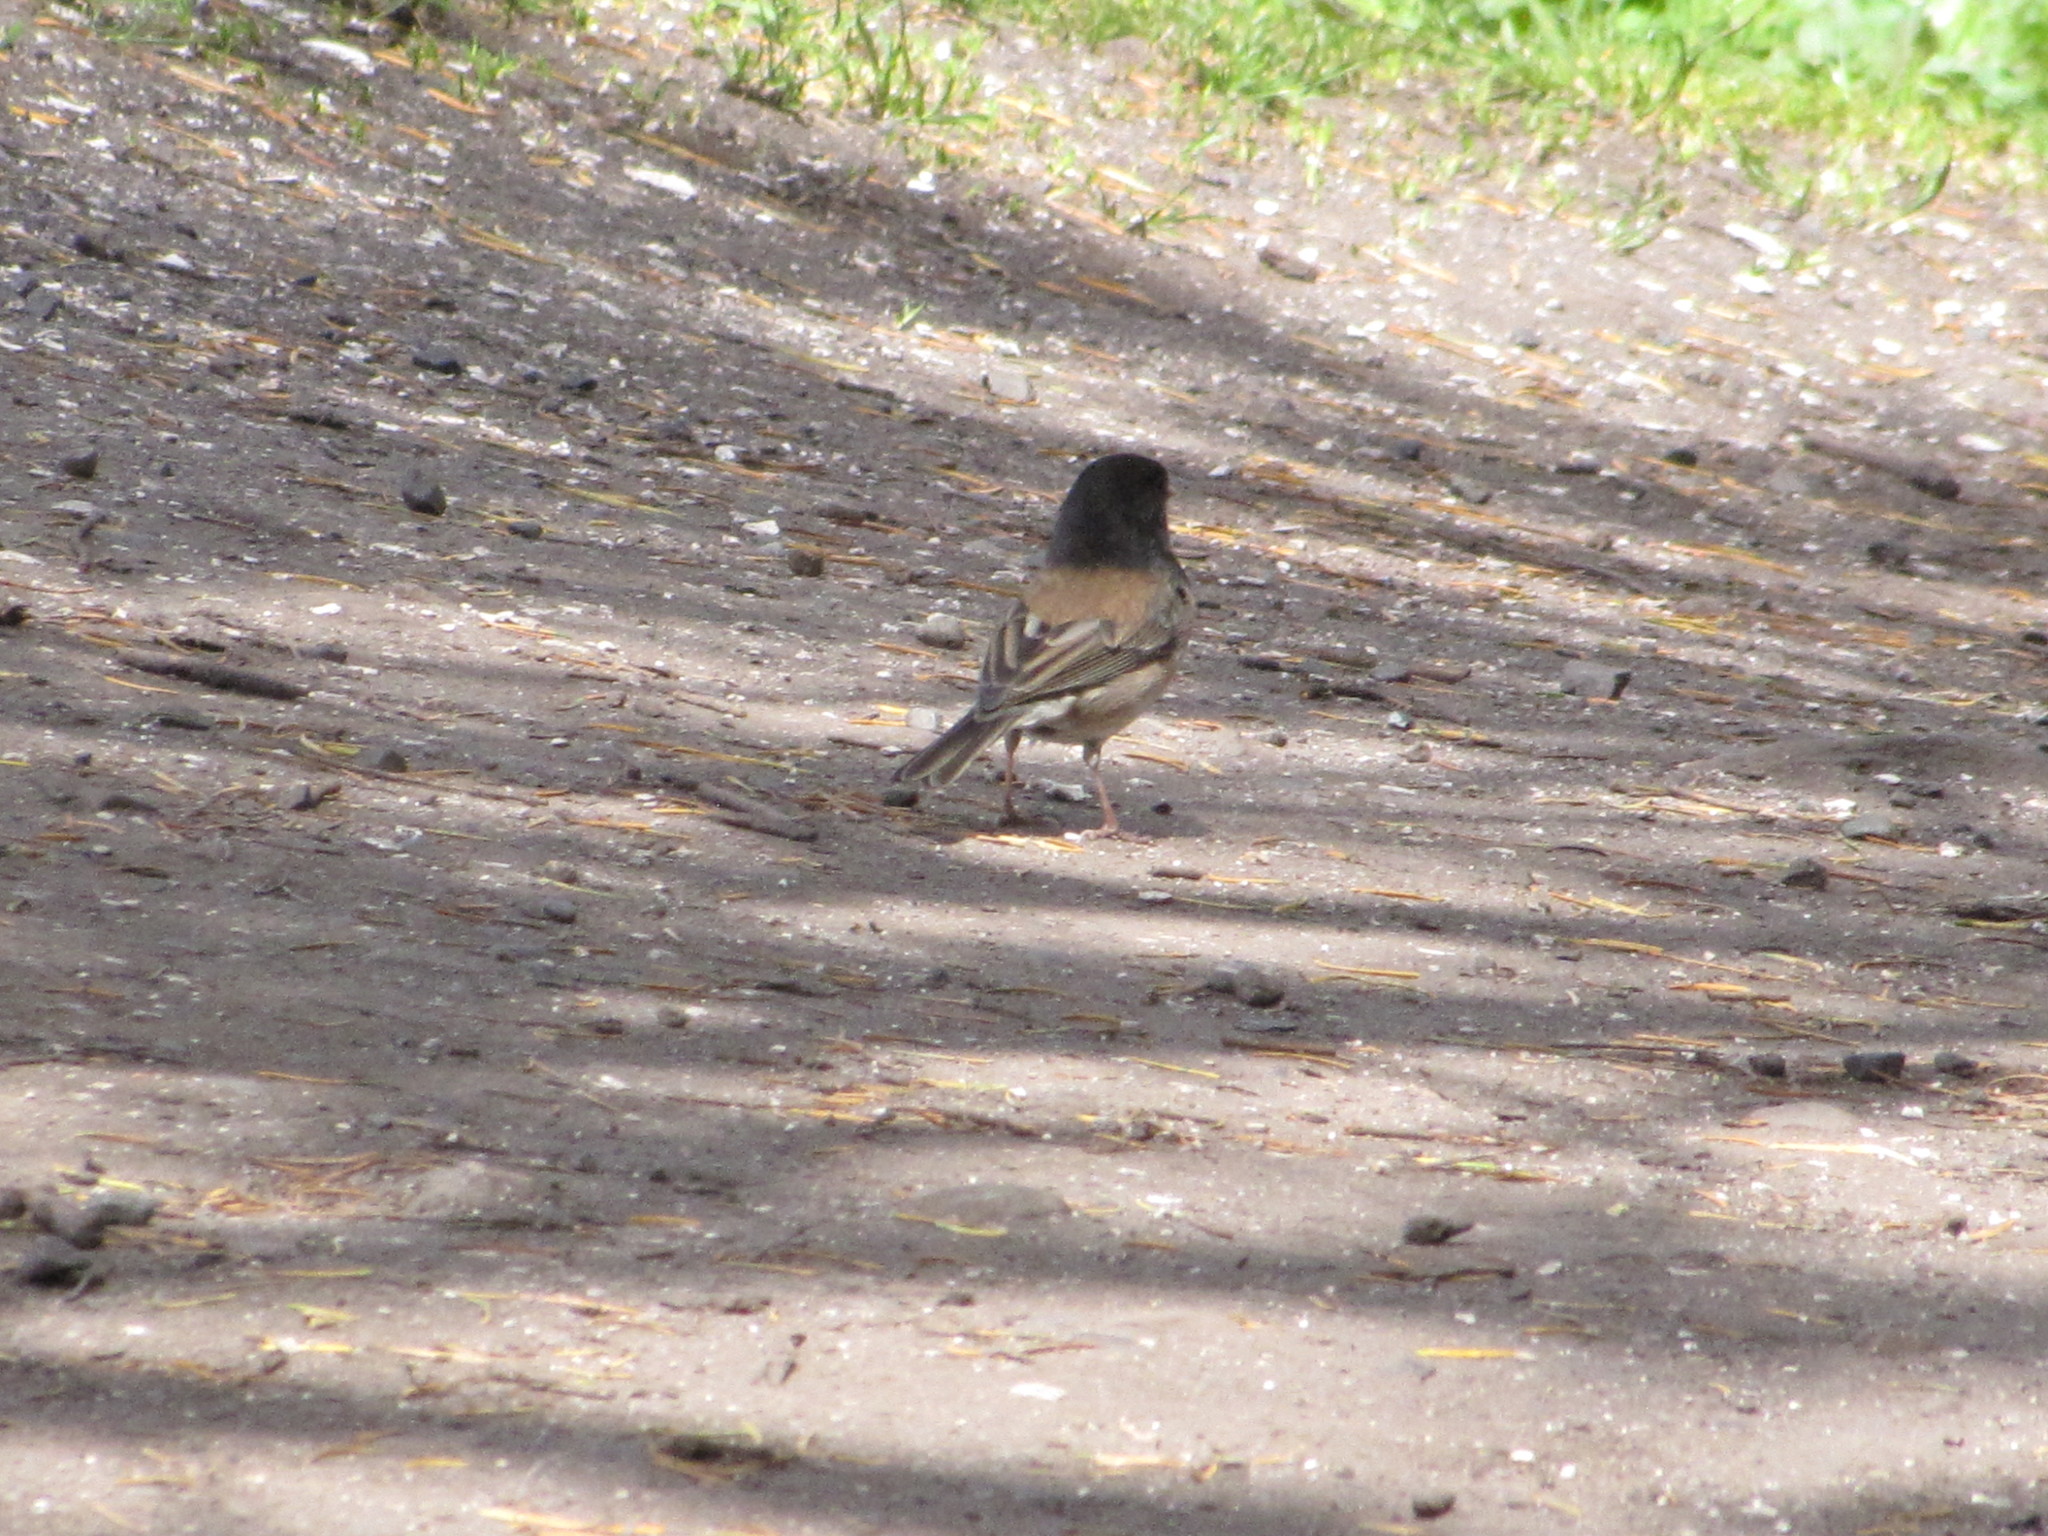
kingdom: Animalia
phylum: Chordata
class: Aves
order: Passeriformes
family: Passerellidae
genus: Junco
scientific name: Junco hyemalis
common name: Dark-eyed junco
